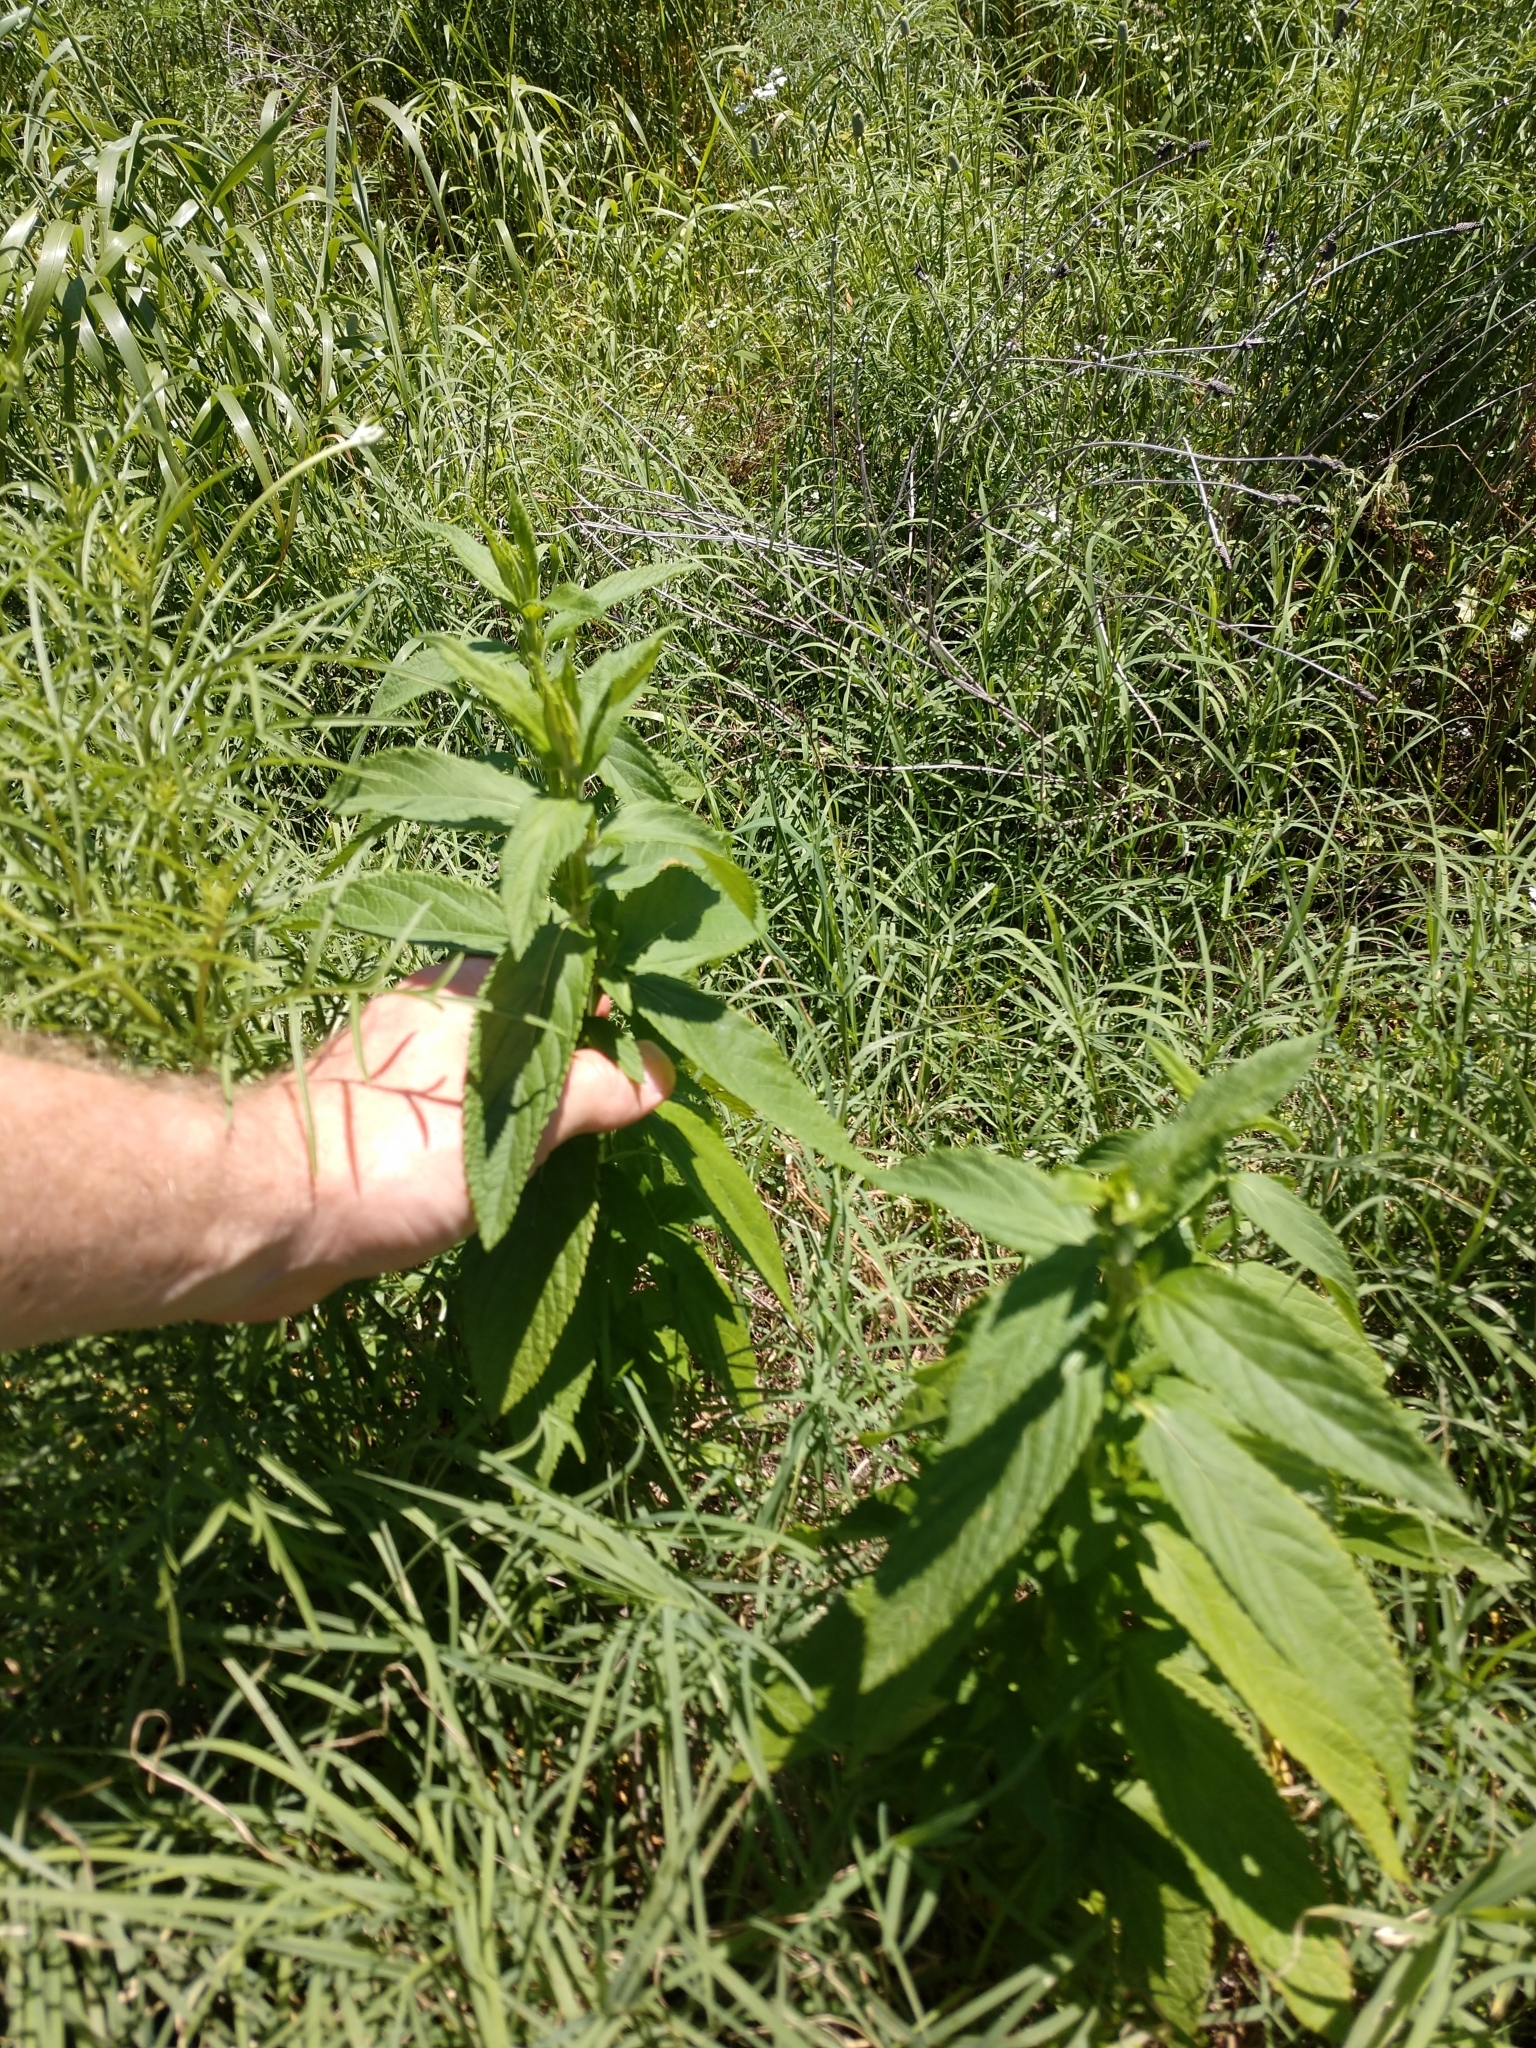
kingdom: Plantae
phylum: Tracheophyta
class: Magnoliopsida
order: Lamiales
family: Lamiaceae
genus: Teucrium
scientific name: Teucrium canadense
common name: American germander
